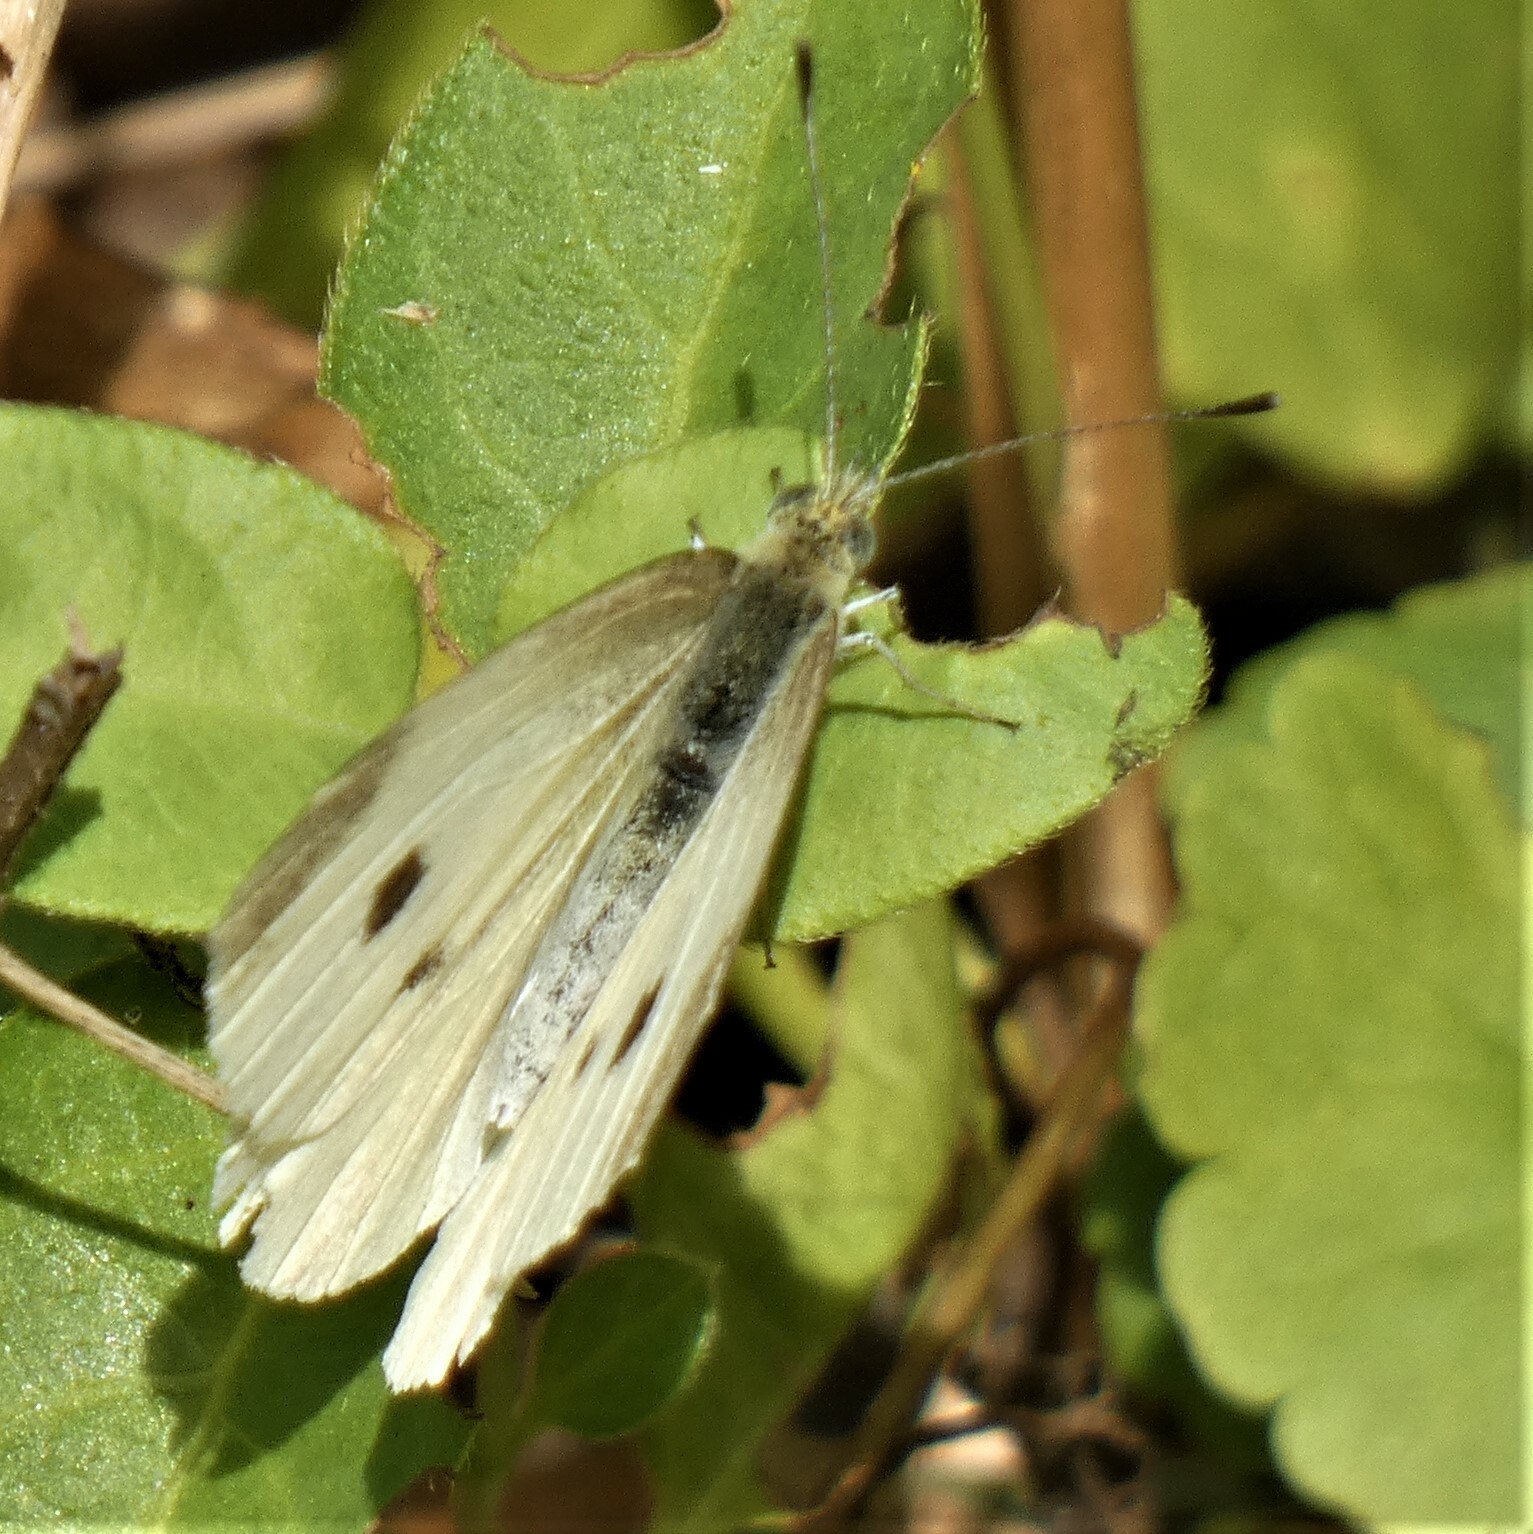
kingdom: Animalia
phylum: Arthropoda
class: Insecta
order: Lepidoptera
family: Pieridae
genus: Pieris
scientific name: Pieris rapae
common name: Small white
